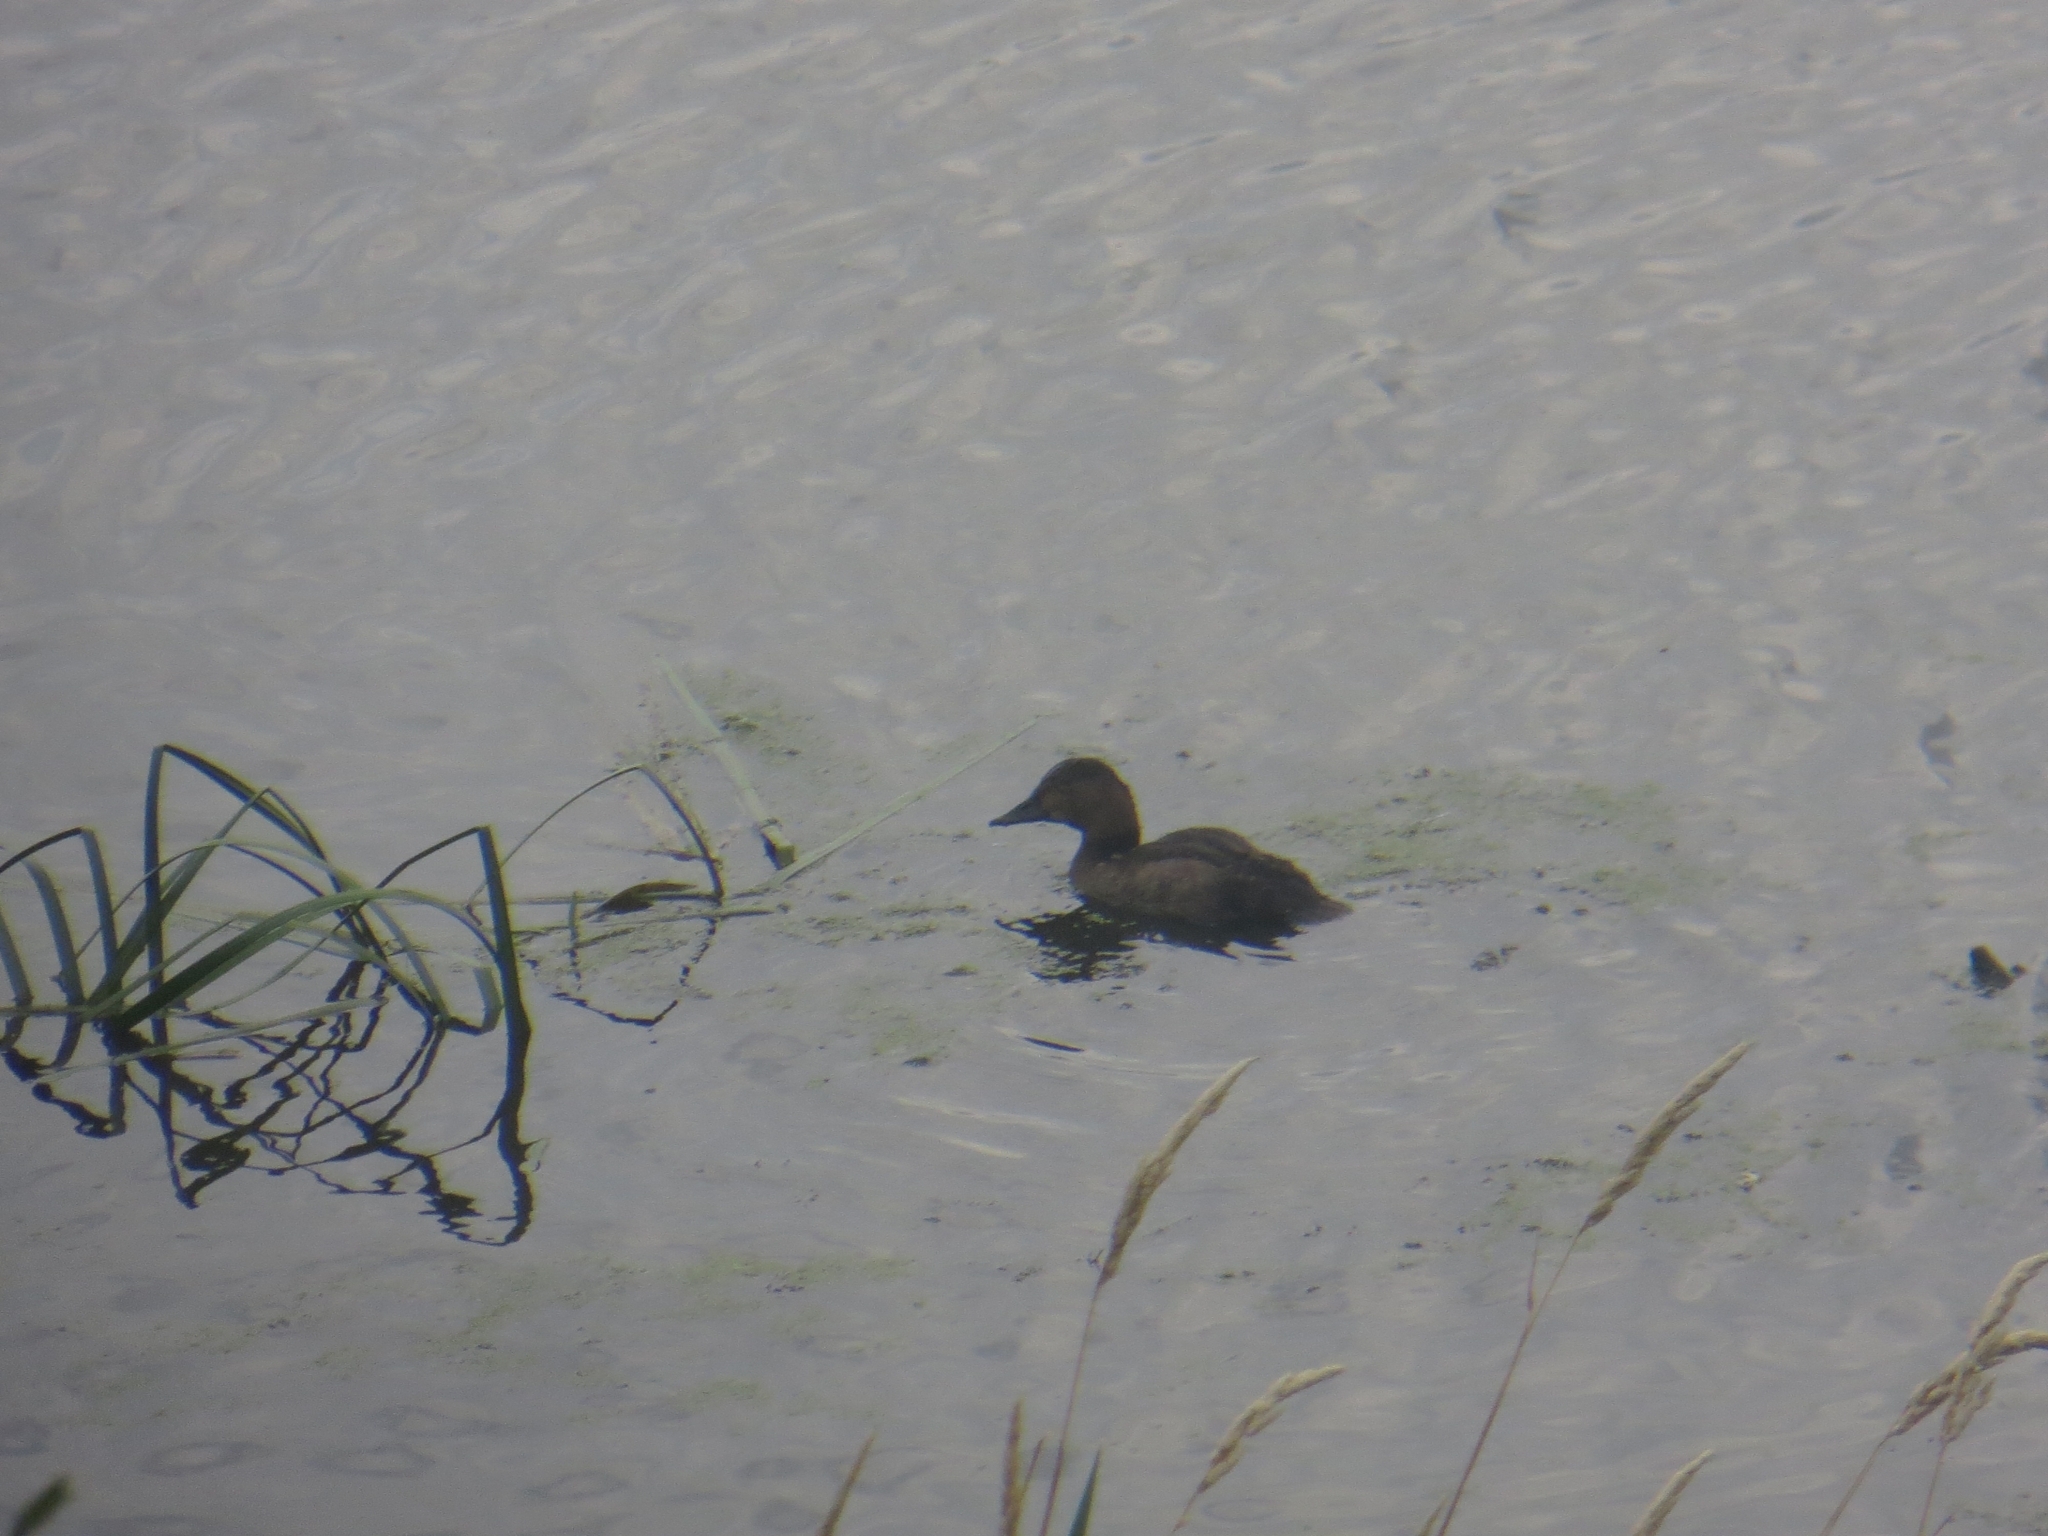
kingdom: Animalia
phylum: Chordata
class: Aves
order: Anseriformes
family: Anatidae
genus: Aythya
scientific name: Aythya ferina
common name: Common pochard
